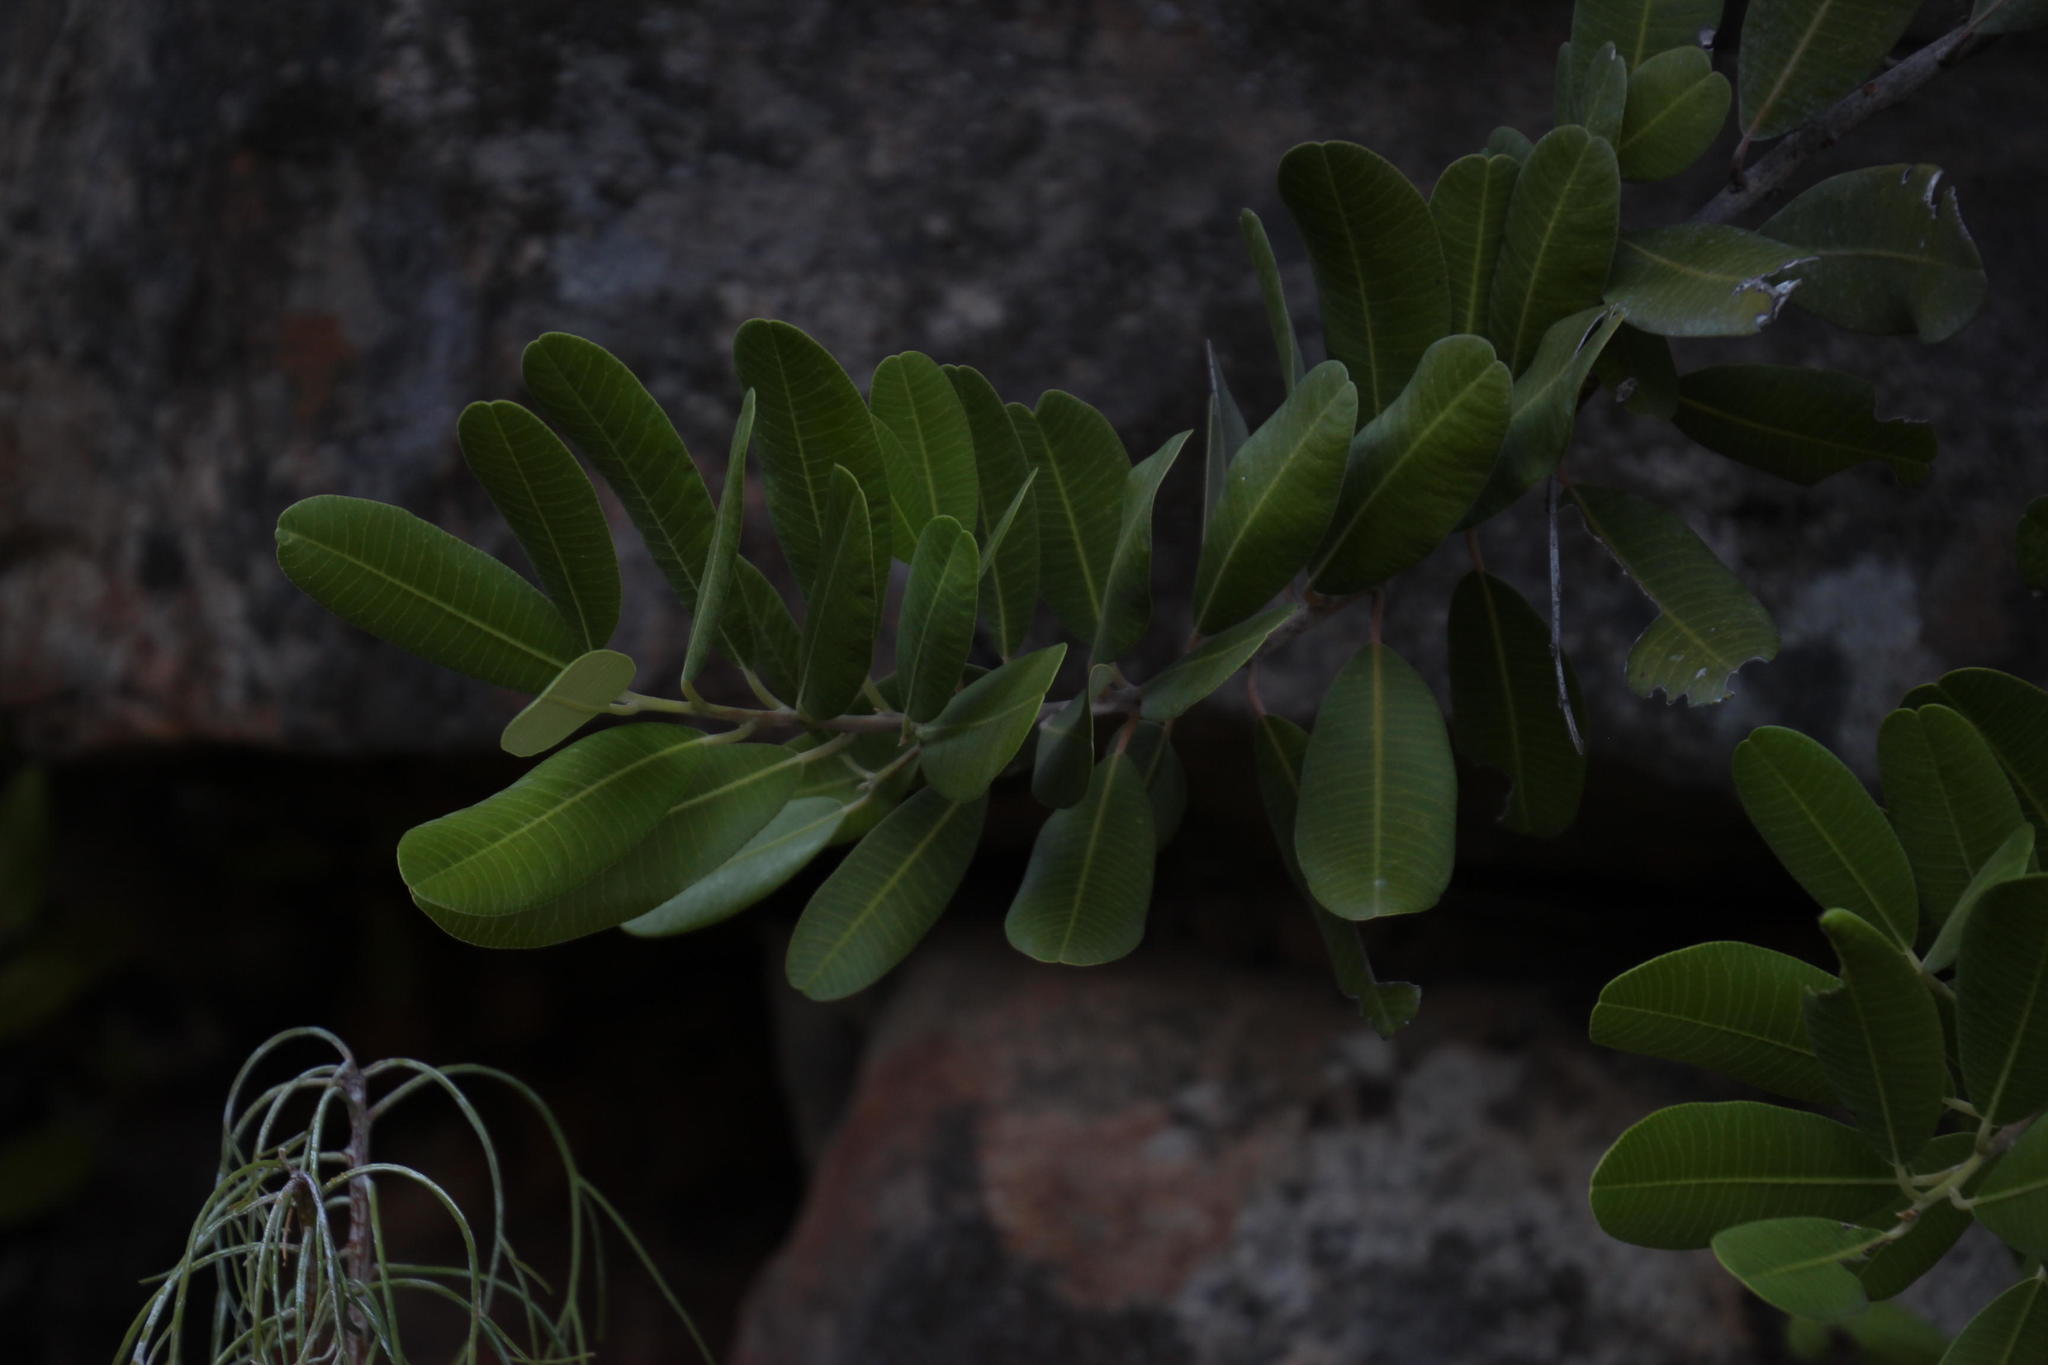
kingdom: Plantae
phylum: Tracheophyta
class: Magnoliopsida
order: Sapindales
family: Anacardiaceae
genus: Heeria
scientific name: Heeria argentea
